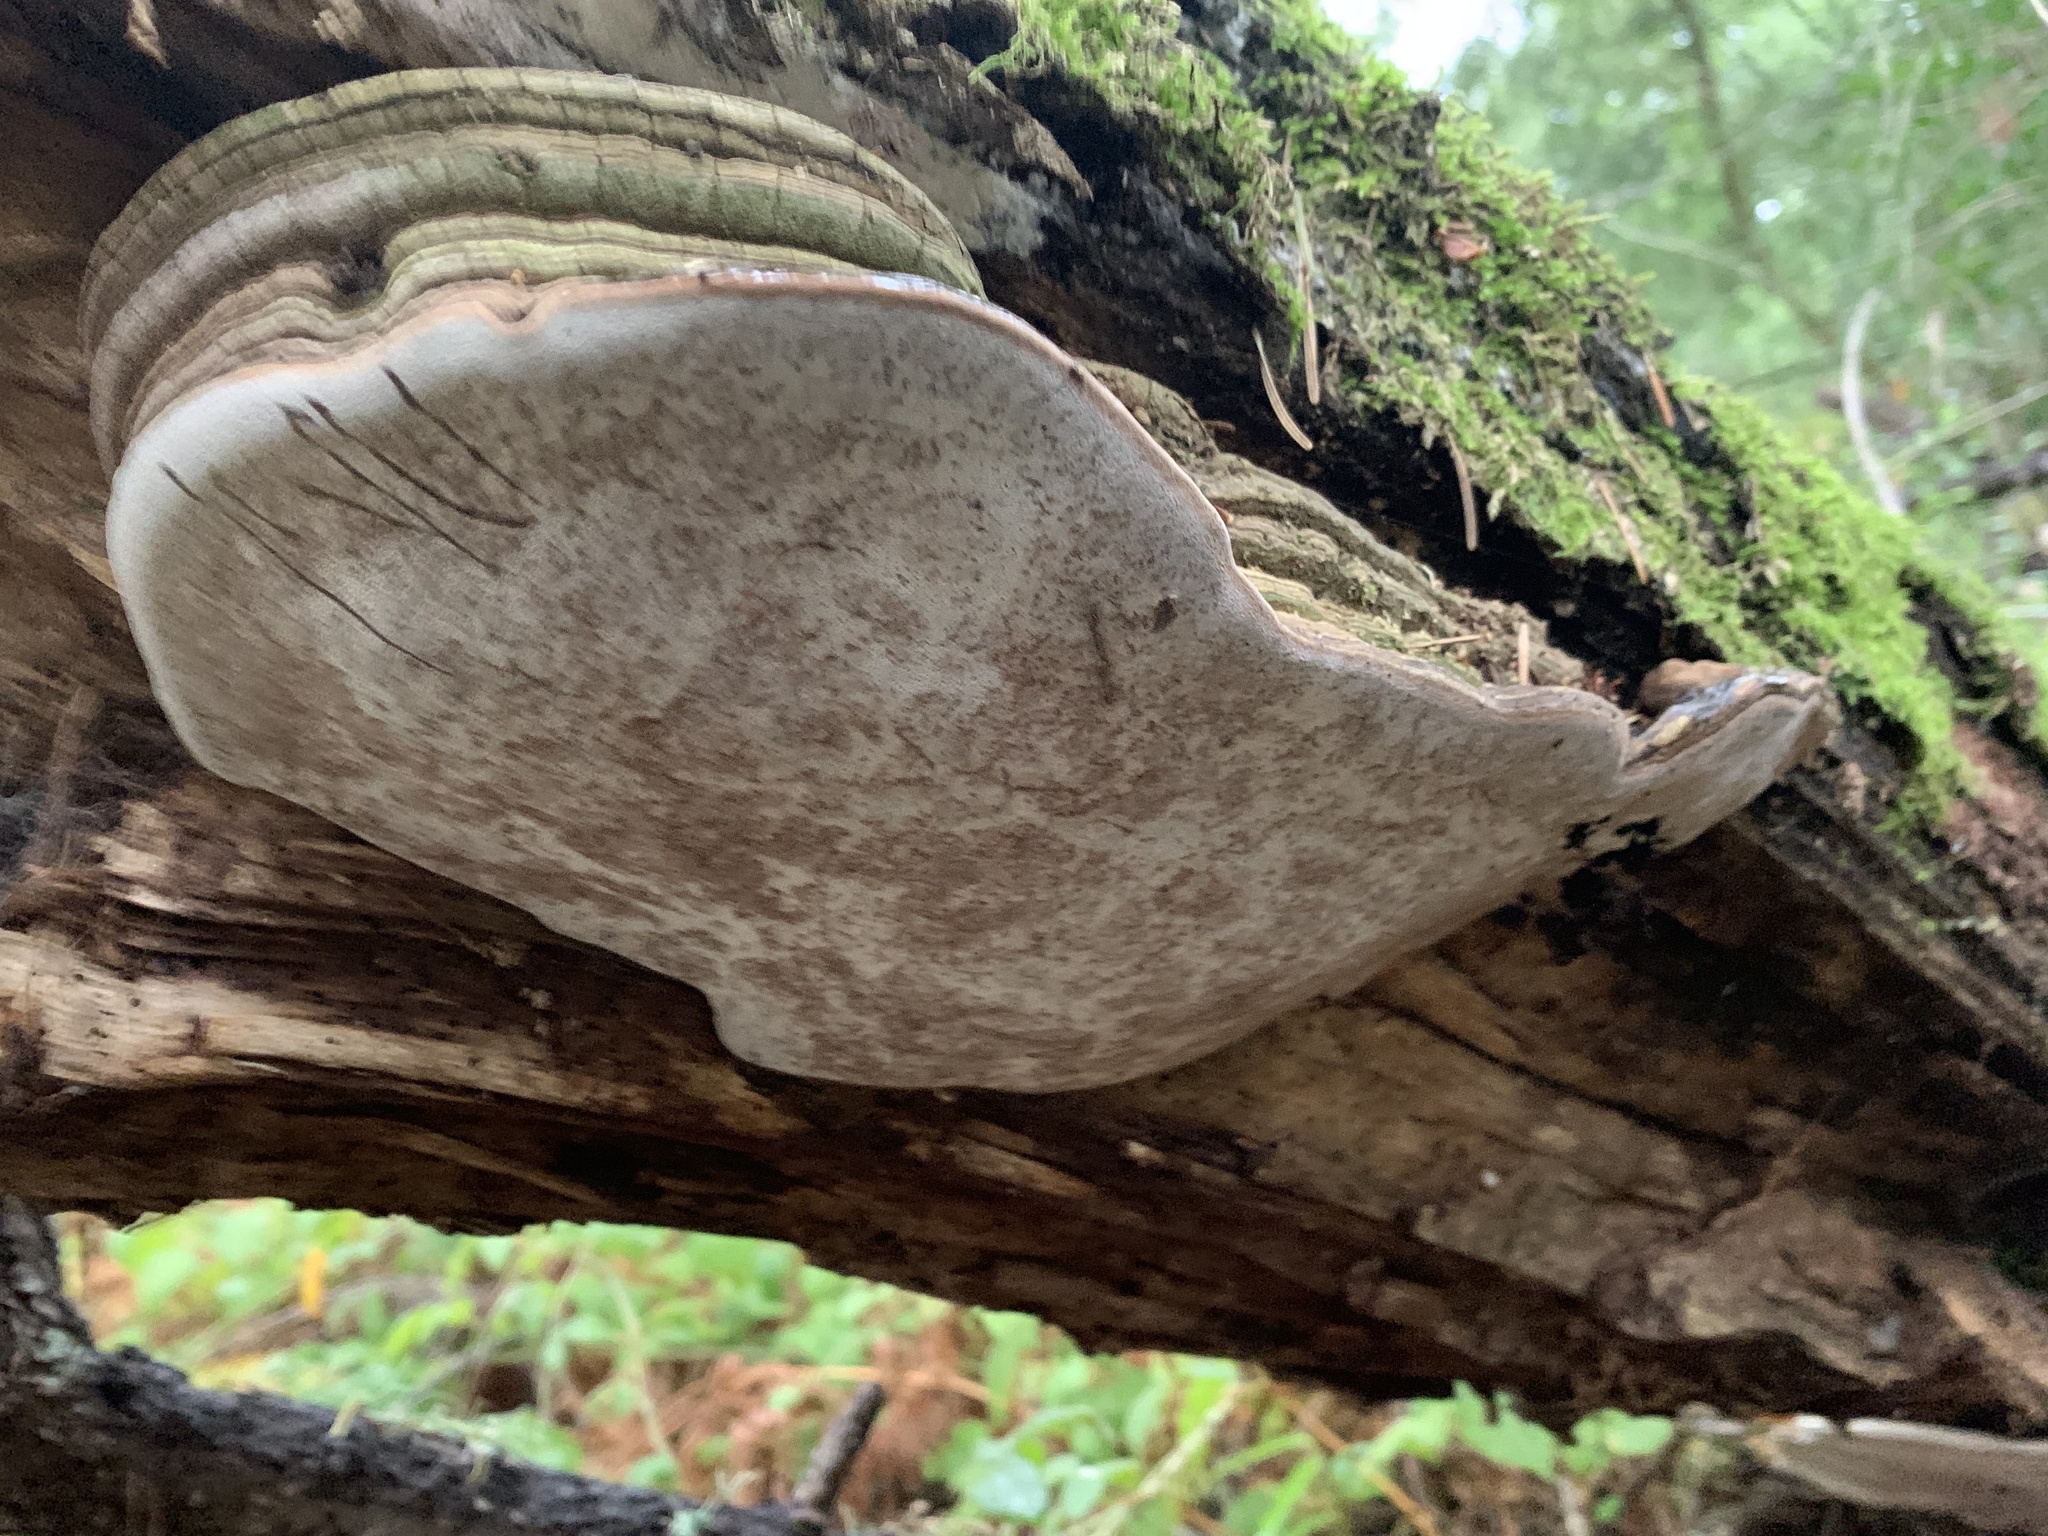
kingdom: Fungi
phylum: Basidiomycota
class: Agaricomycetes
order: Polyporales
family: Polyporaceae
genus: Ganoderma
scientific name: Ganoderma brownii
